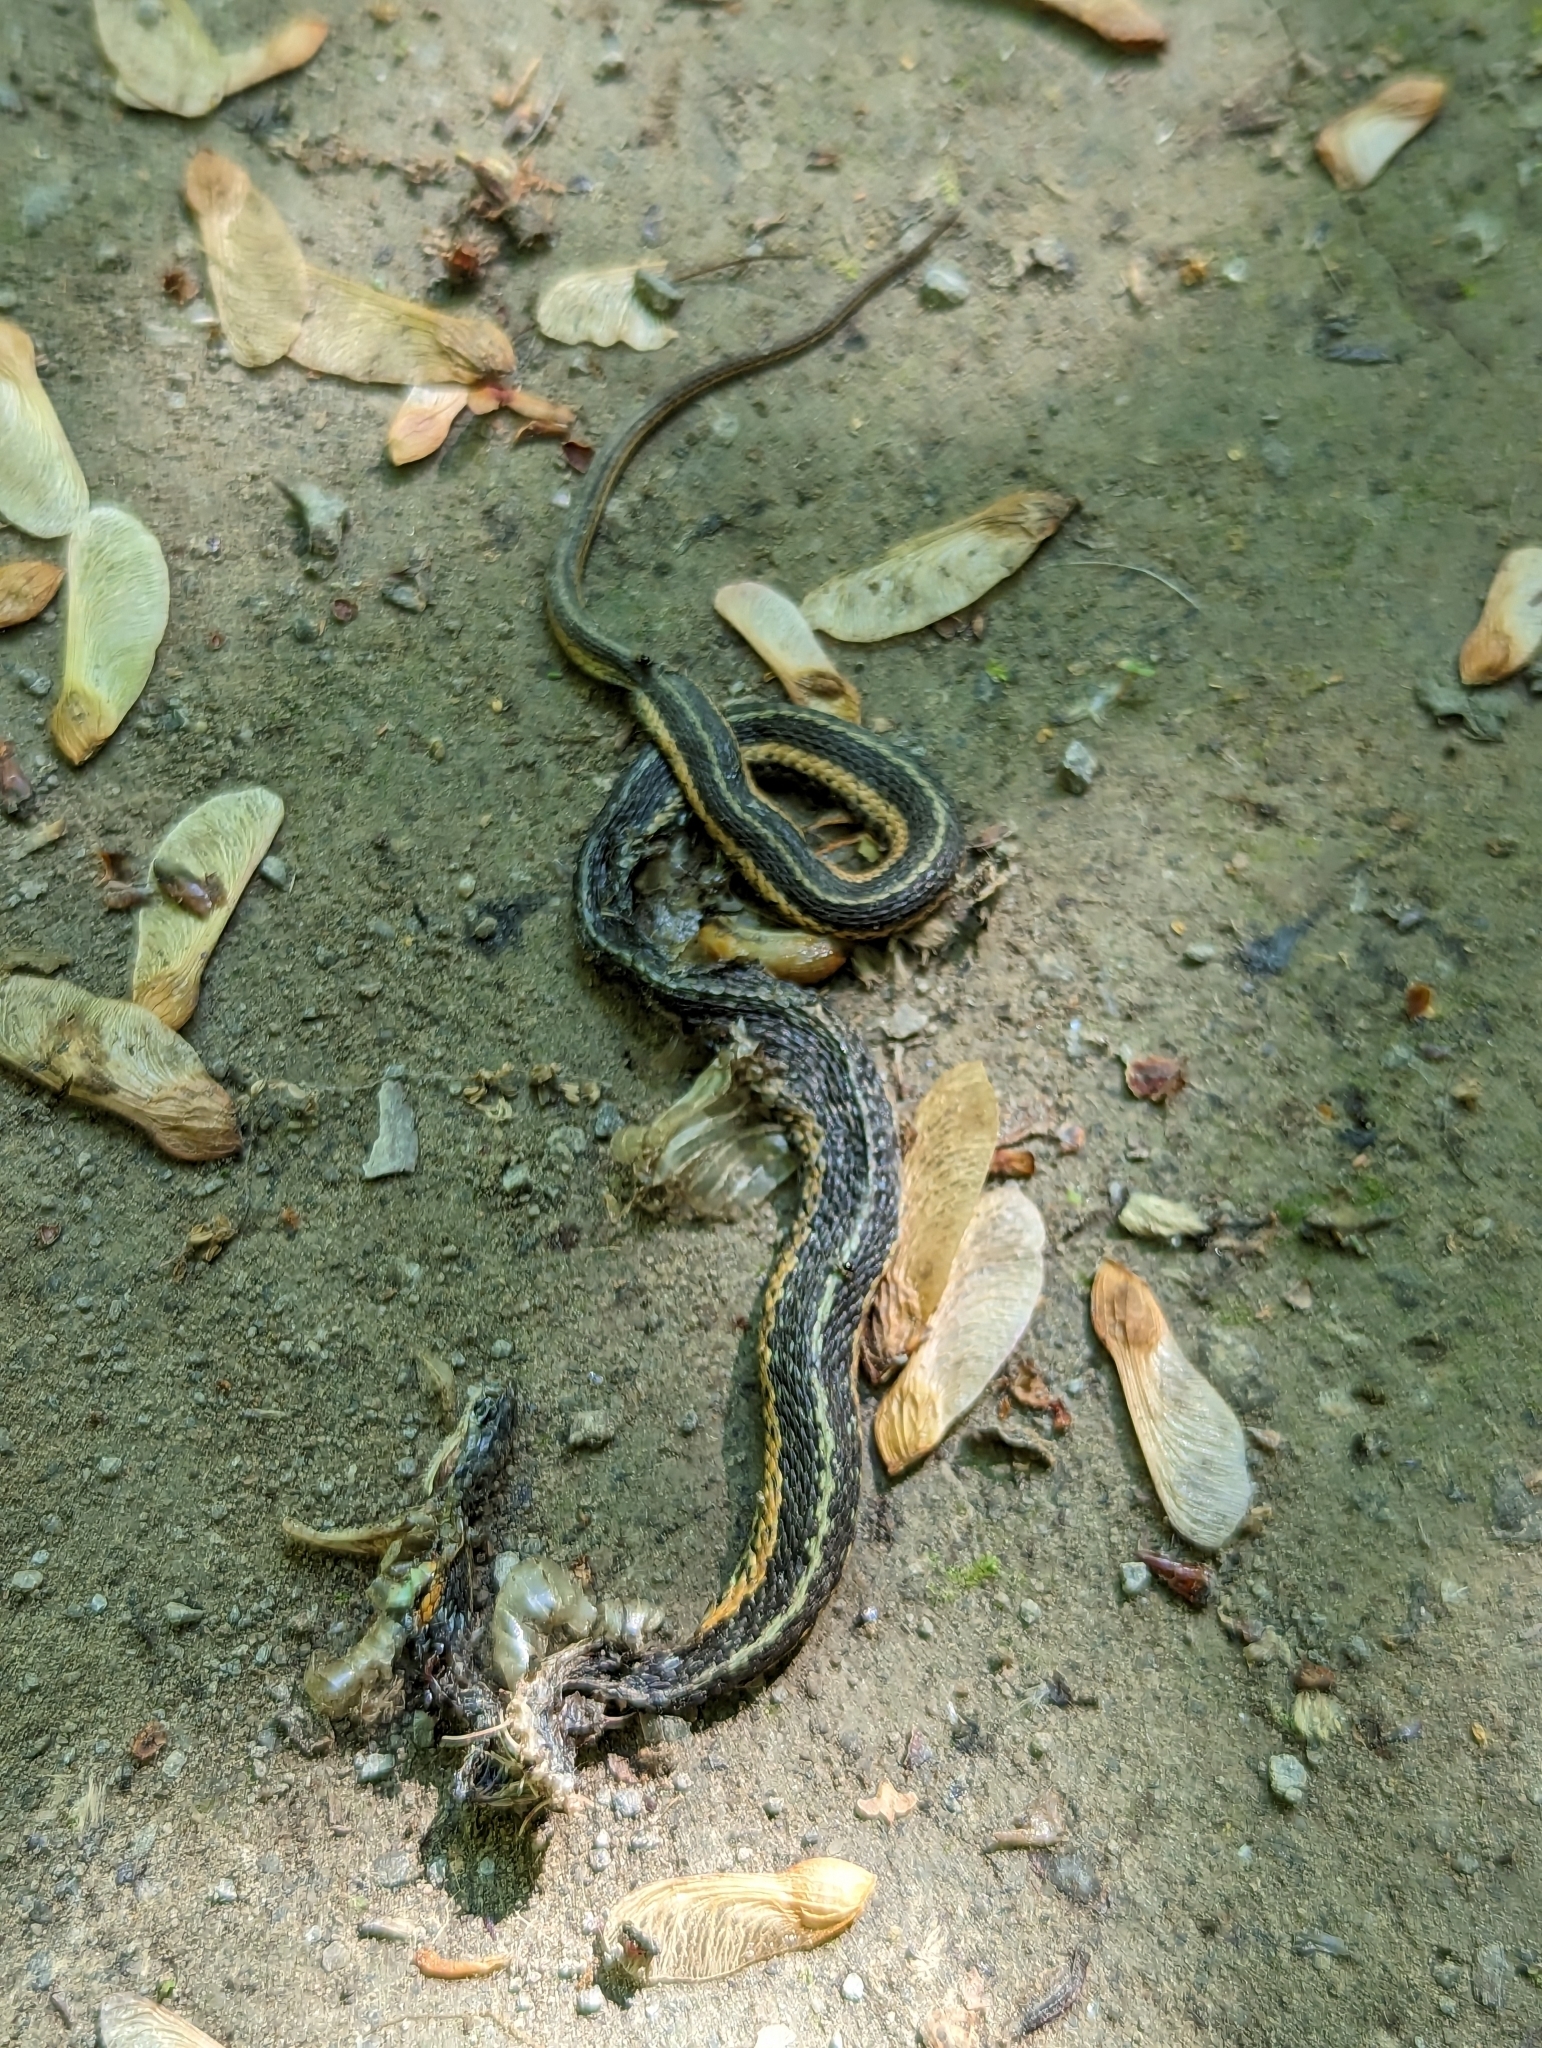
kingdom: Animalia
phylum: Chordata
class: Squamata
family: Colubridae
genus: Thamnophis
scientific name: Thamnophis sirtalis
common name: Common garter snake
